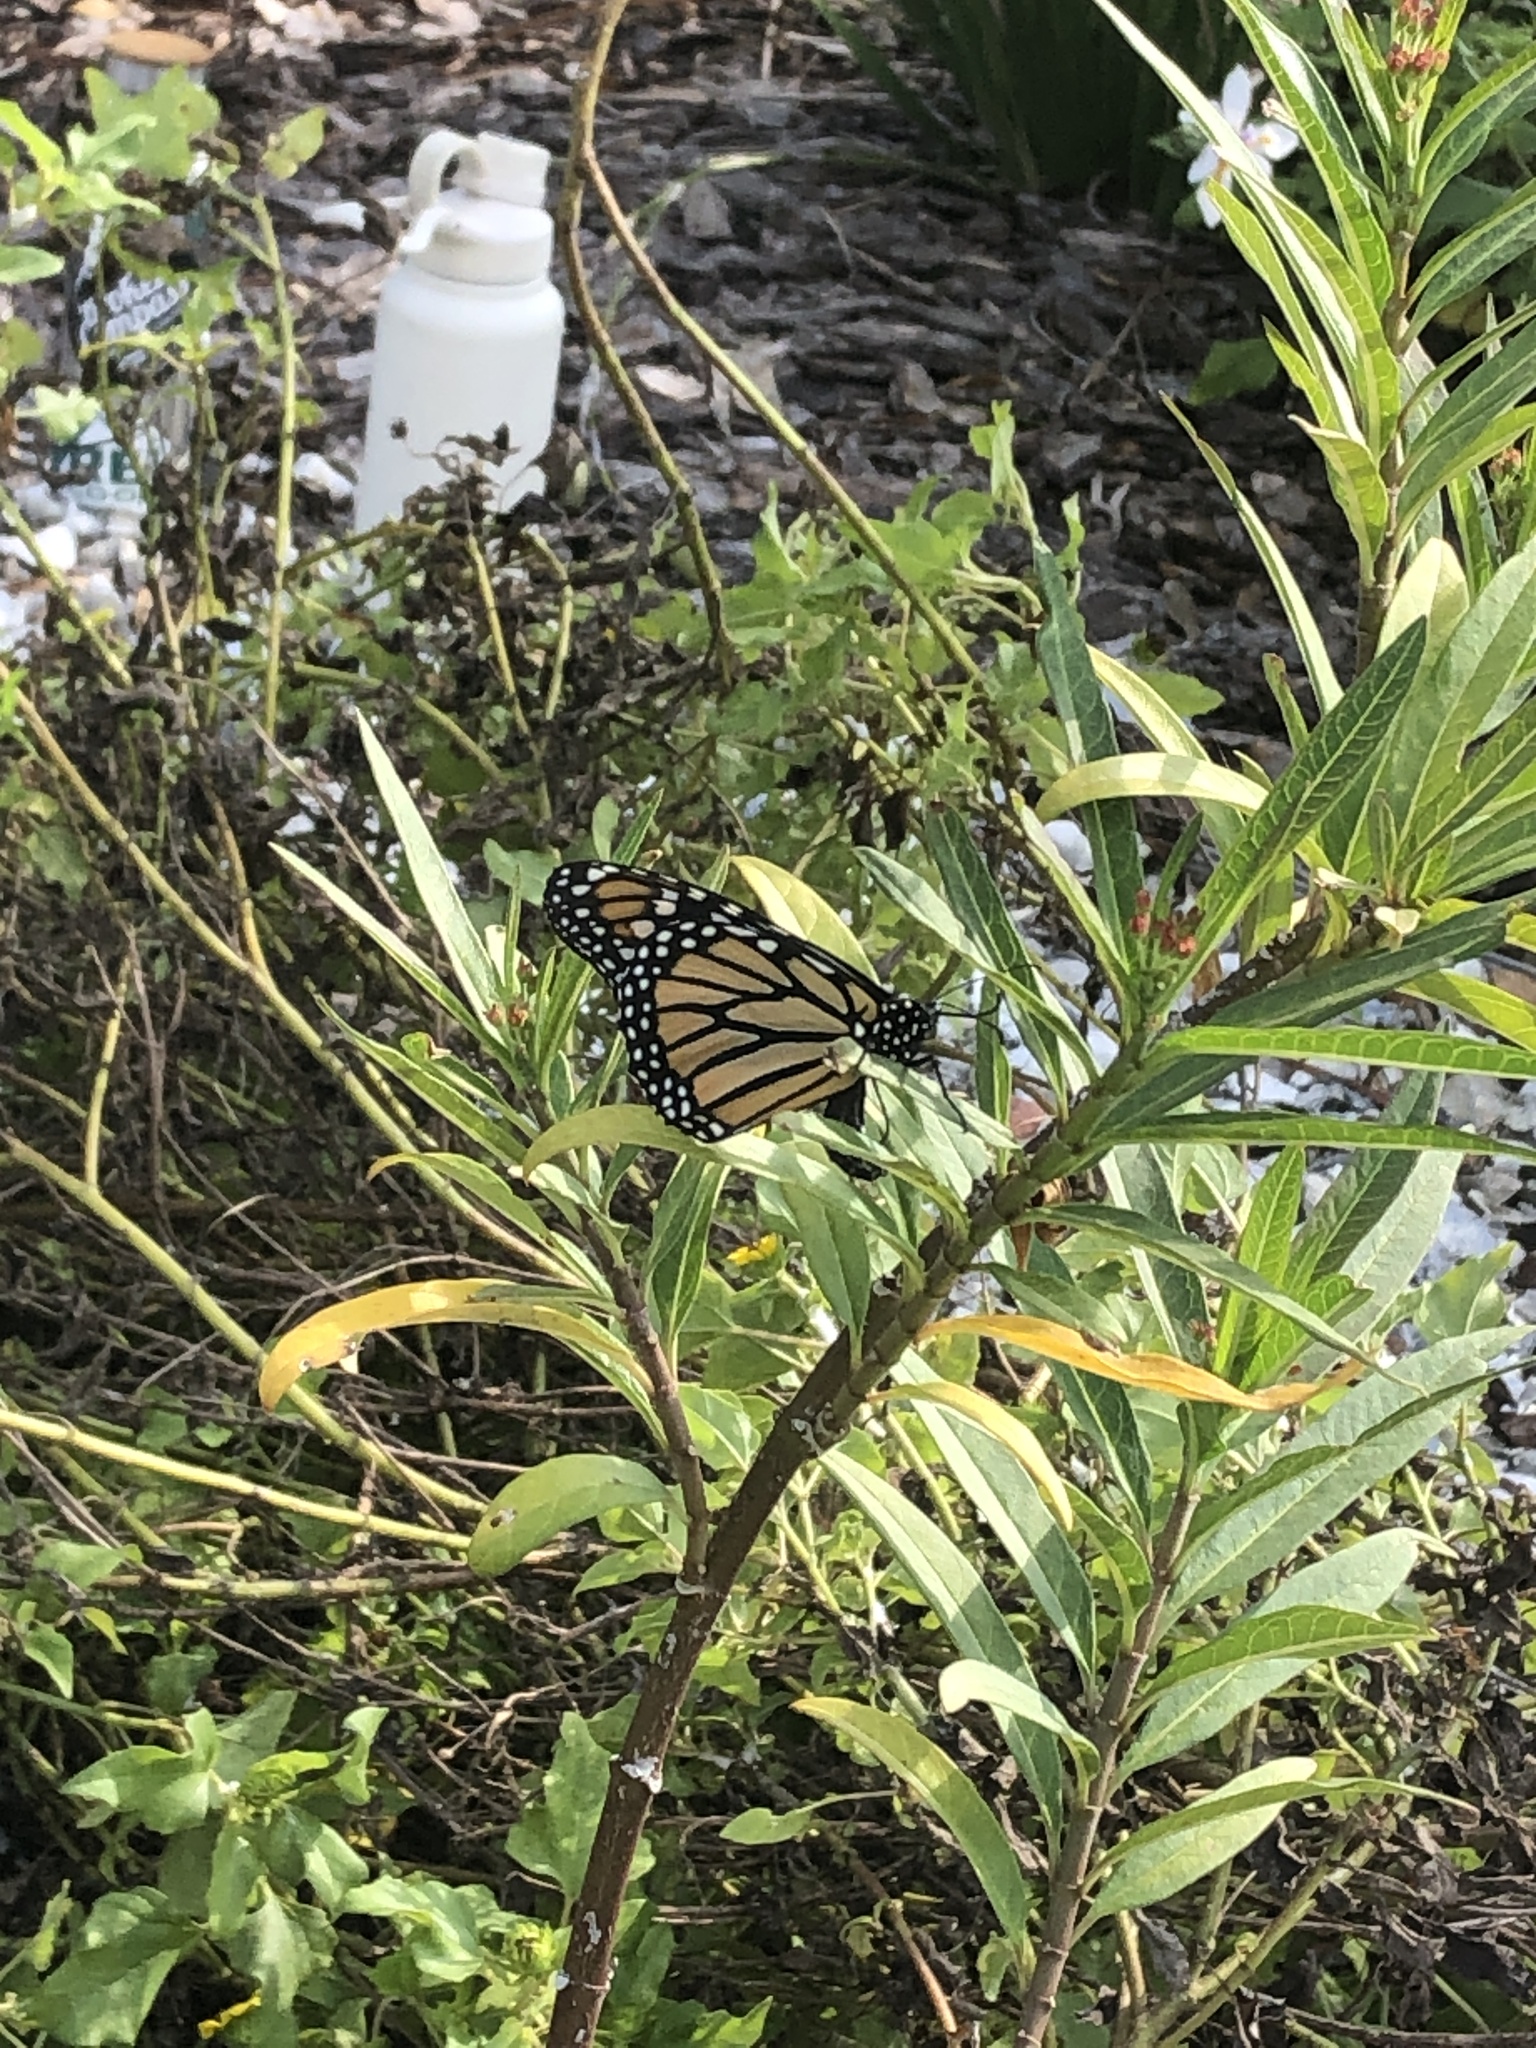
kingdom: Animalia
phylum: Arthropoda
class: Insecta
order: Lepidoptera
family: Nymphalidae
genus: Danaus
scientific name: Danaus plexippus
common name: Monarch
